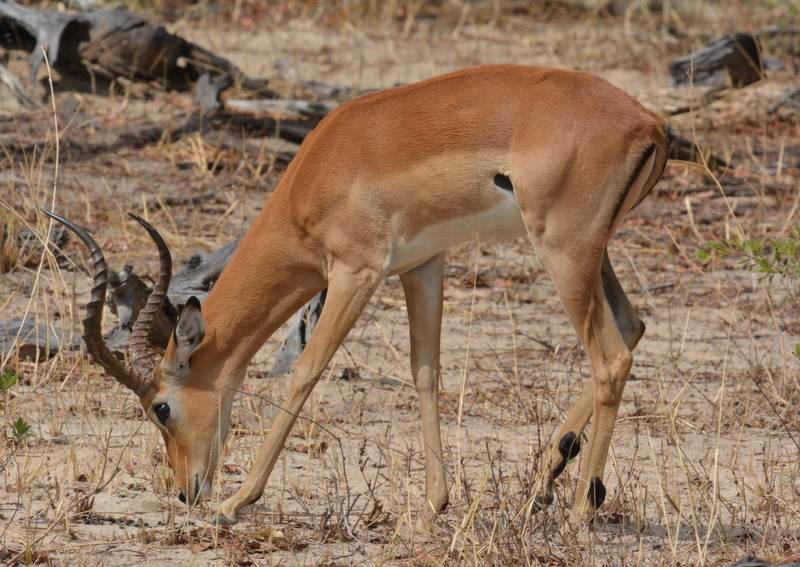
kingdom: Animalia
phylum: Chordata
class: Mammalia
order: Artiodactyla
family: Bovidae
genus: Aepyceros
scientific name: Aepyceros melampus
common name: Impala
